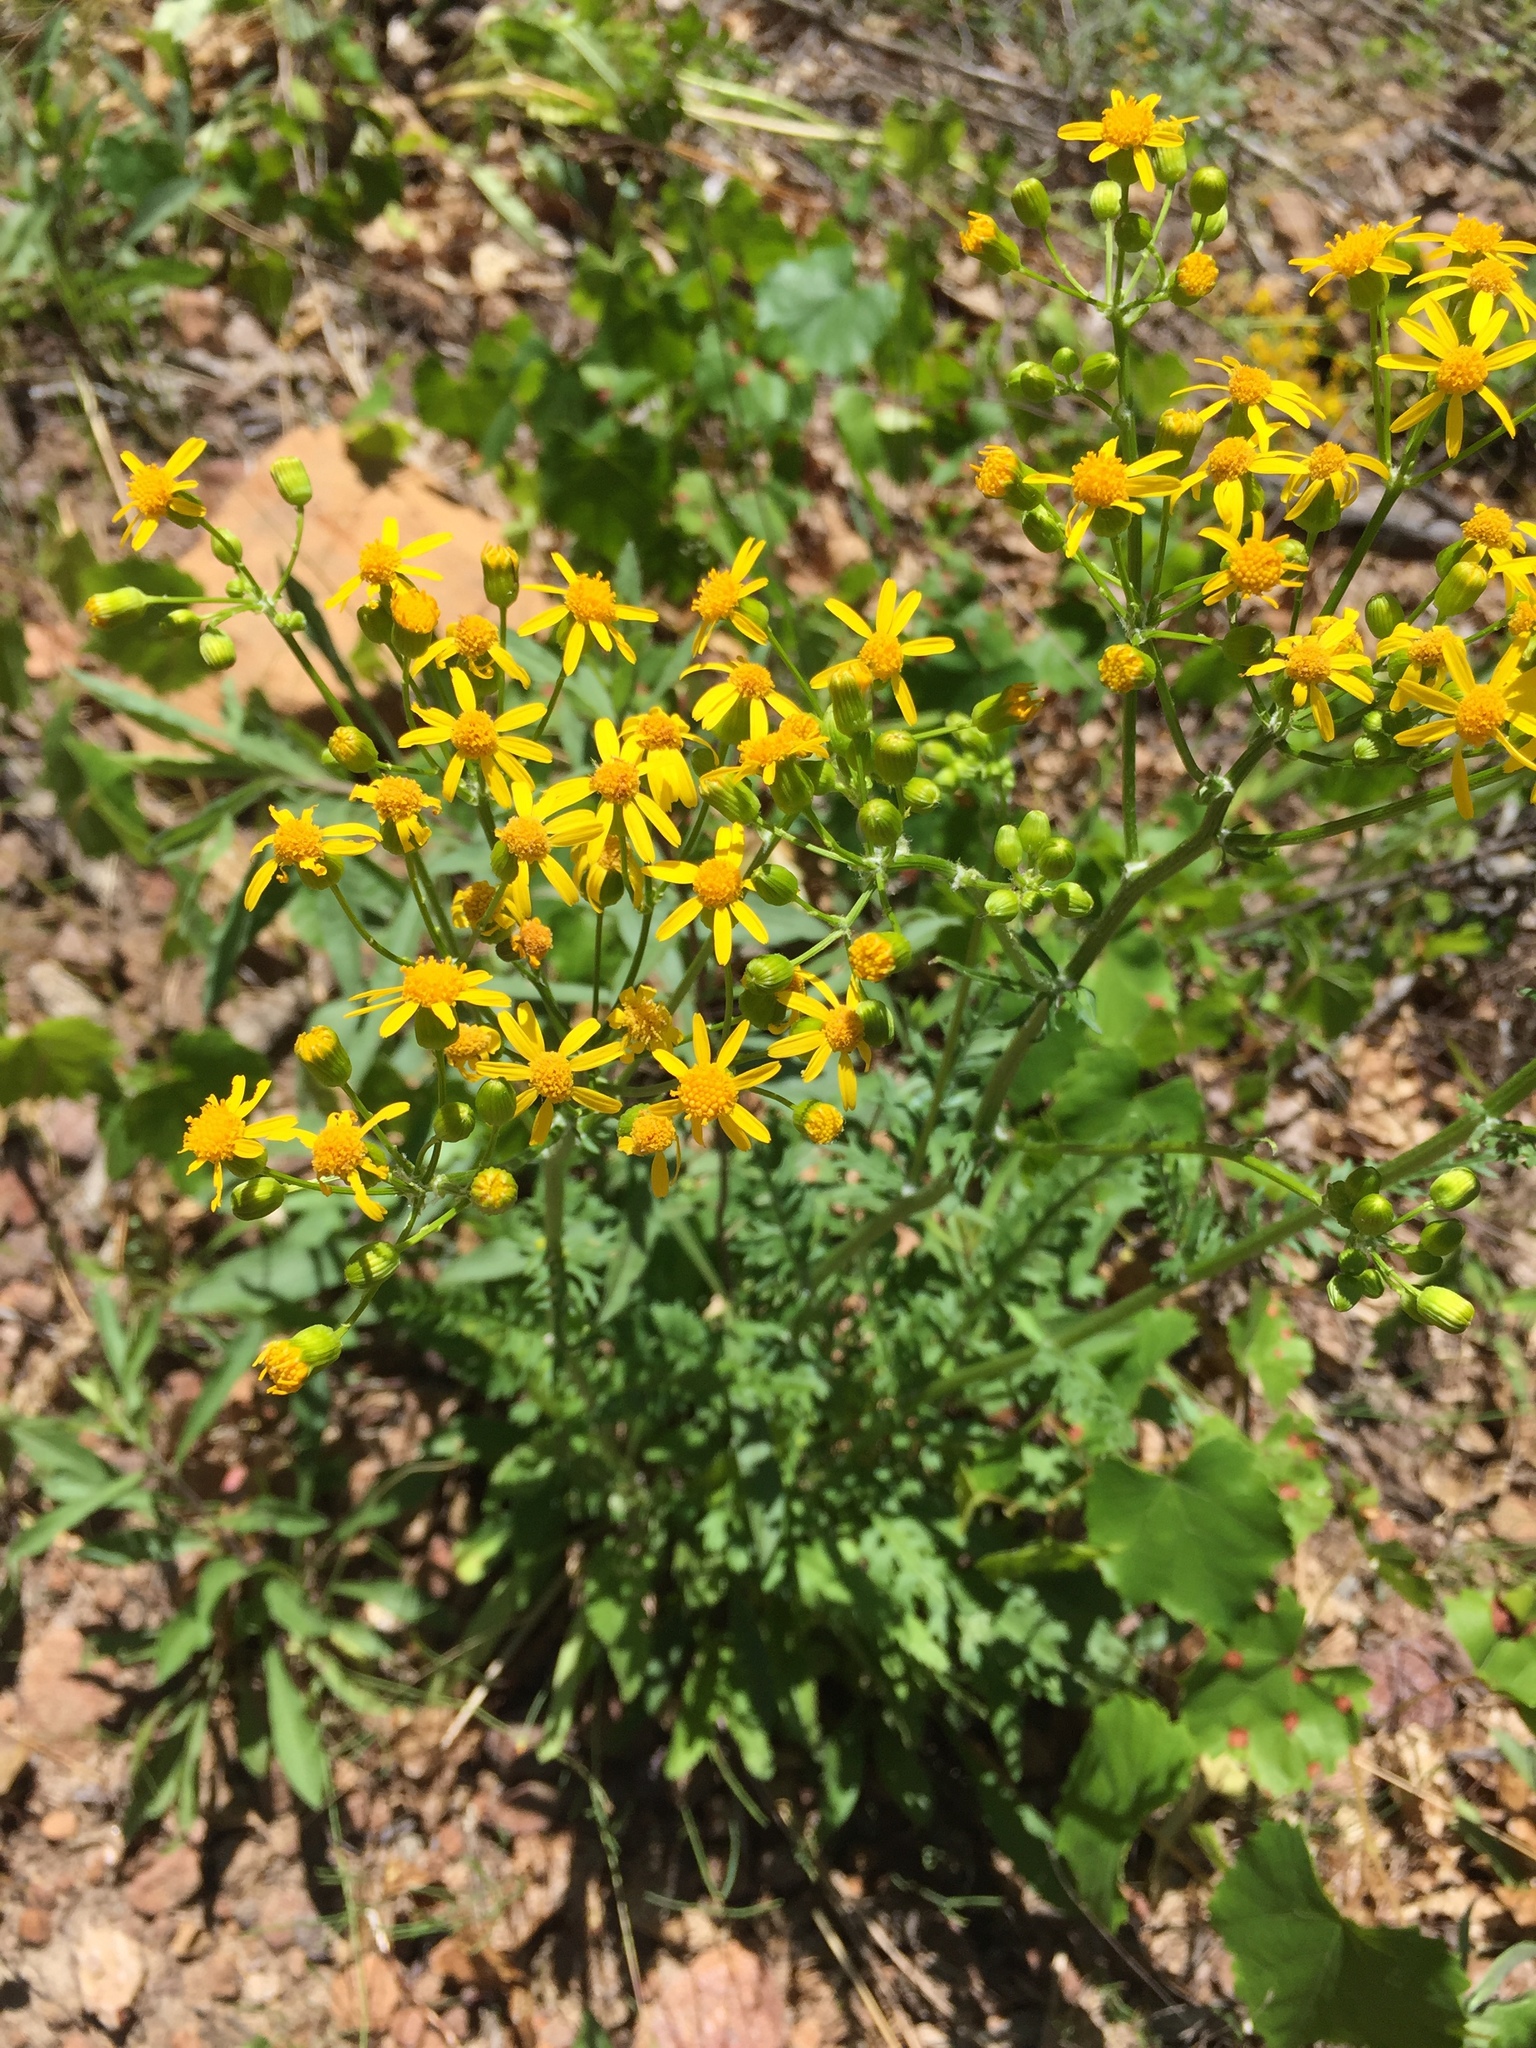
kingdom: Plantae
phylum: Tracheophyta
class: Magnoliopsida
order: Asterales
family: Asteraceae
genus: Packera
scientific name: Packera anonyma
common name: Small ragwort
